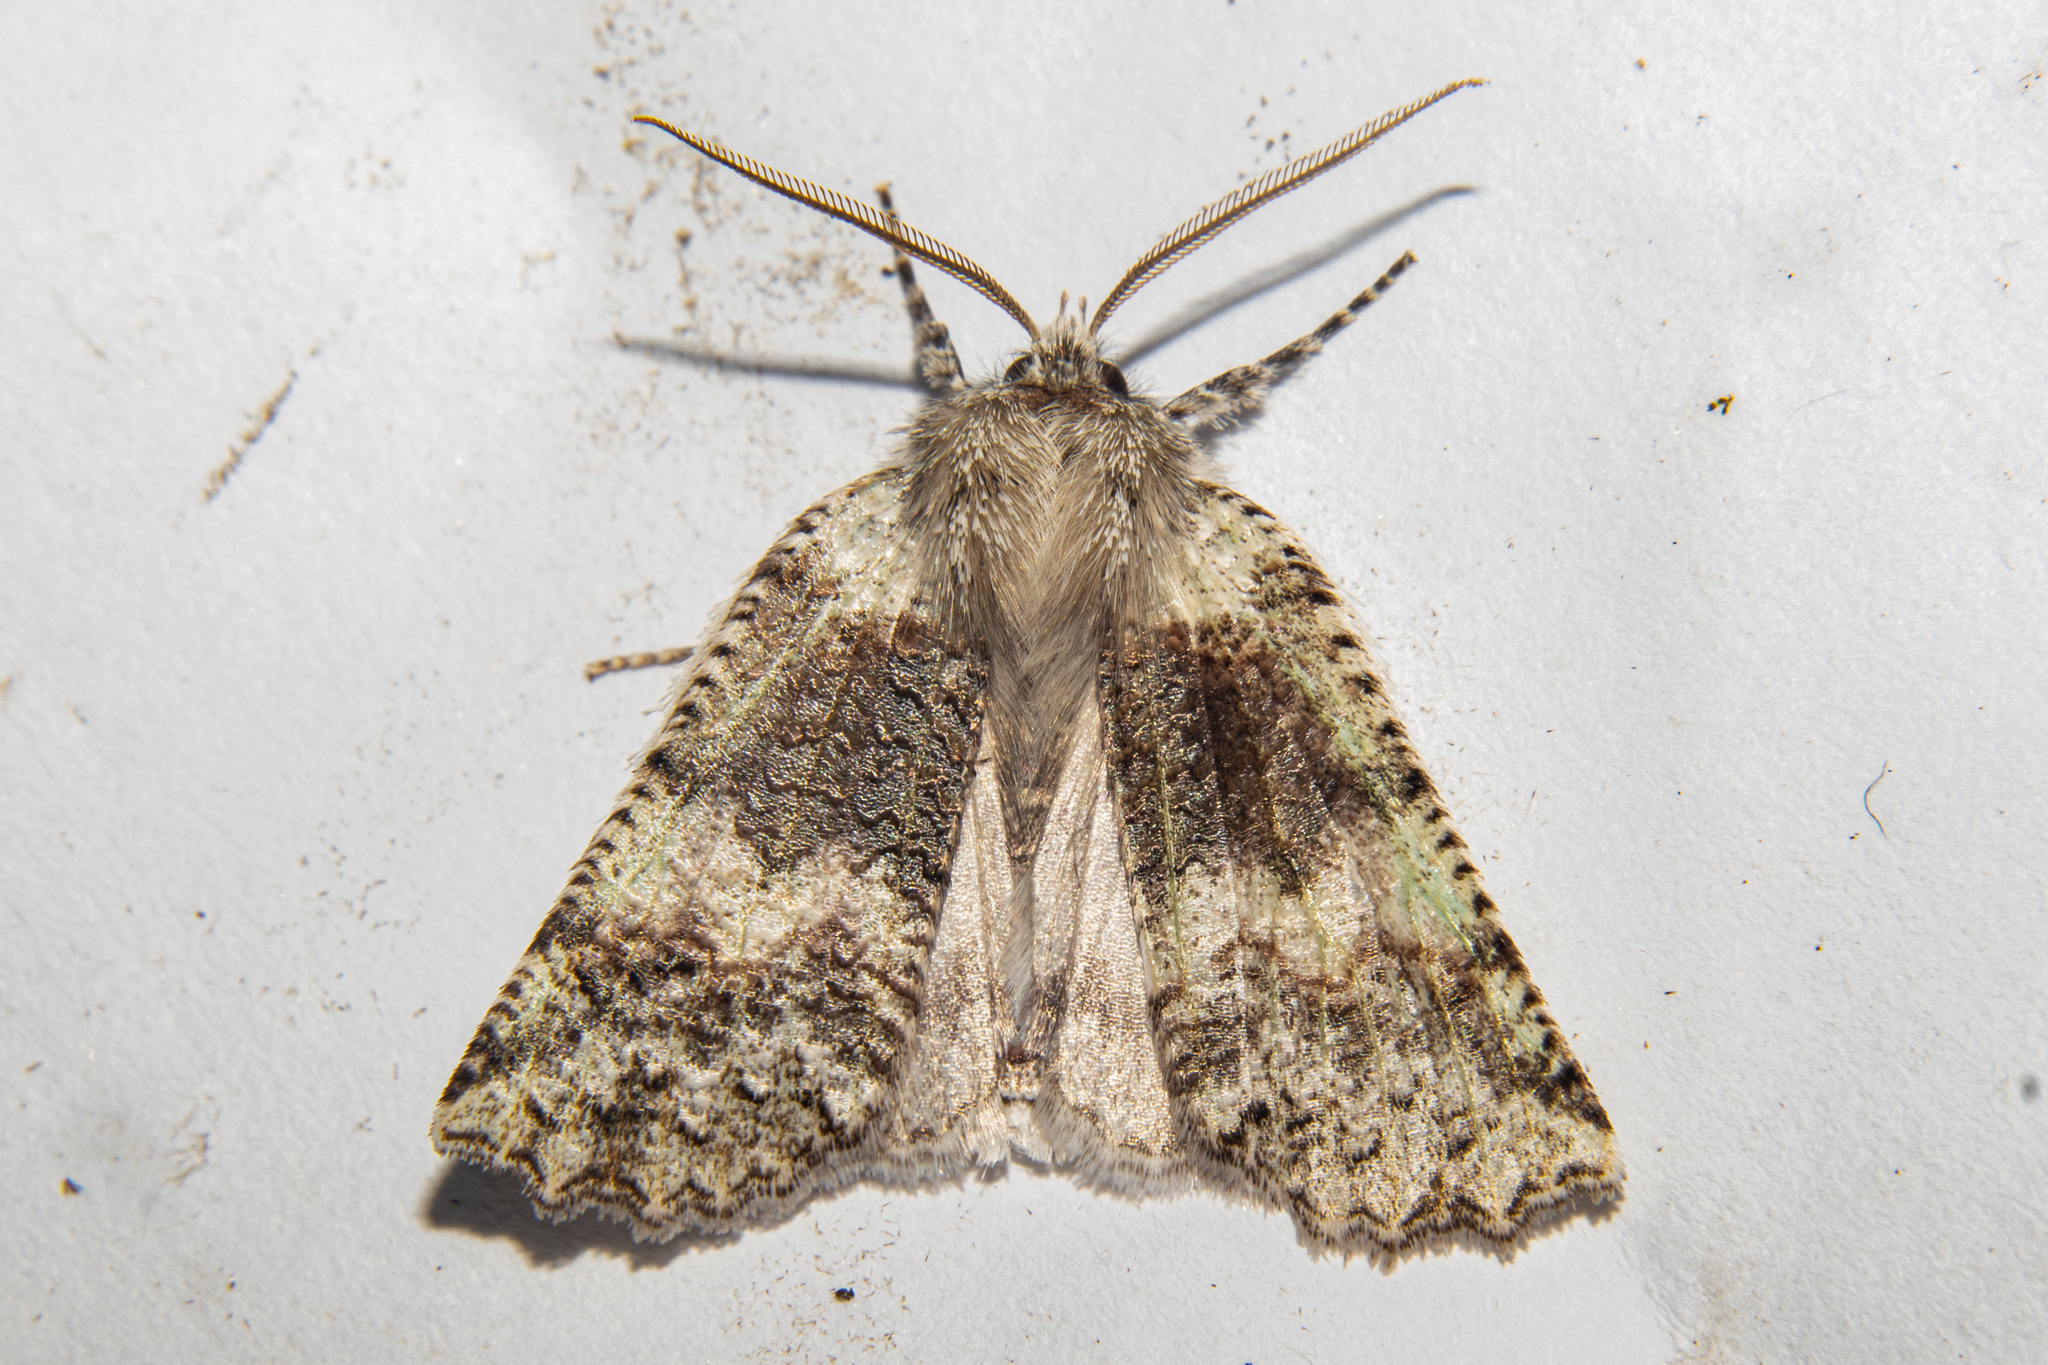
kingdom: Animalia
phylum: Arthropoda
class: Insecta
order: Lepidoptera
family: Geometridae
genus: Declana
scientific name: Declana floccosa
